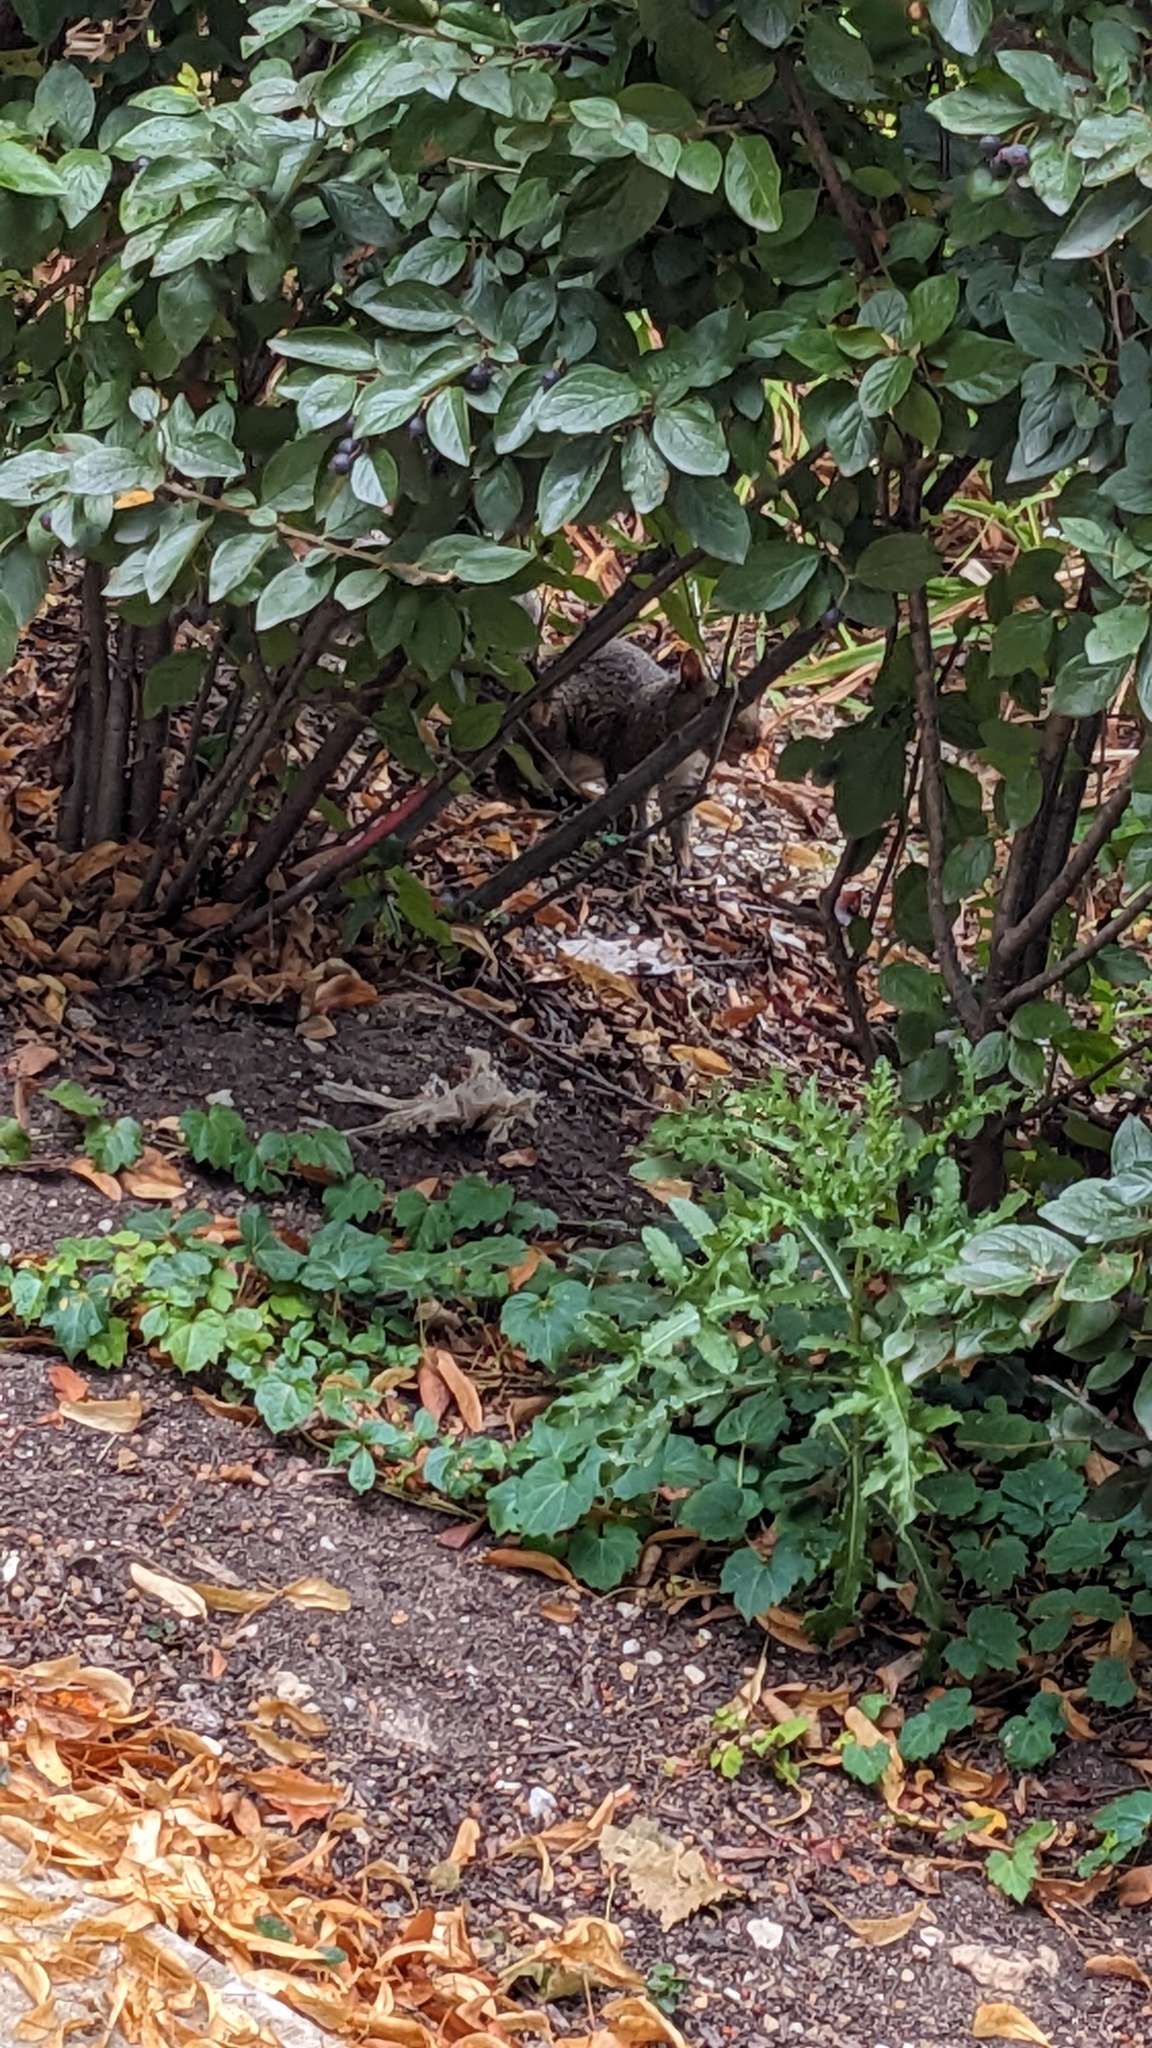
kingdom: Animalia
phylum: Chordata
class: Mammalia
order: Rodentia
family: Sciuridae
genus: Sciurus
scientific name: Sciurus carolinensis
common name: Eastern gray squirrel
